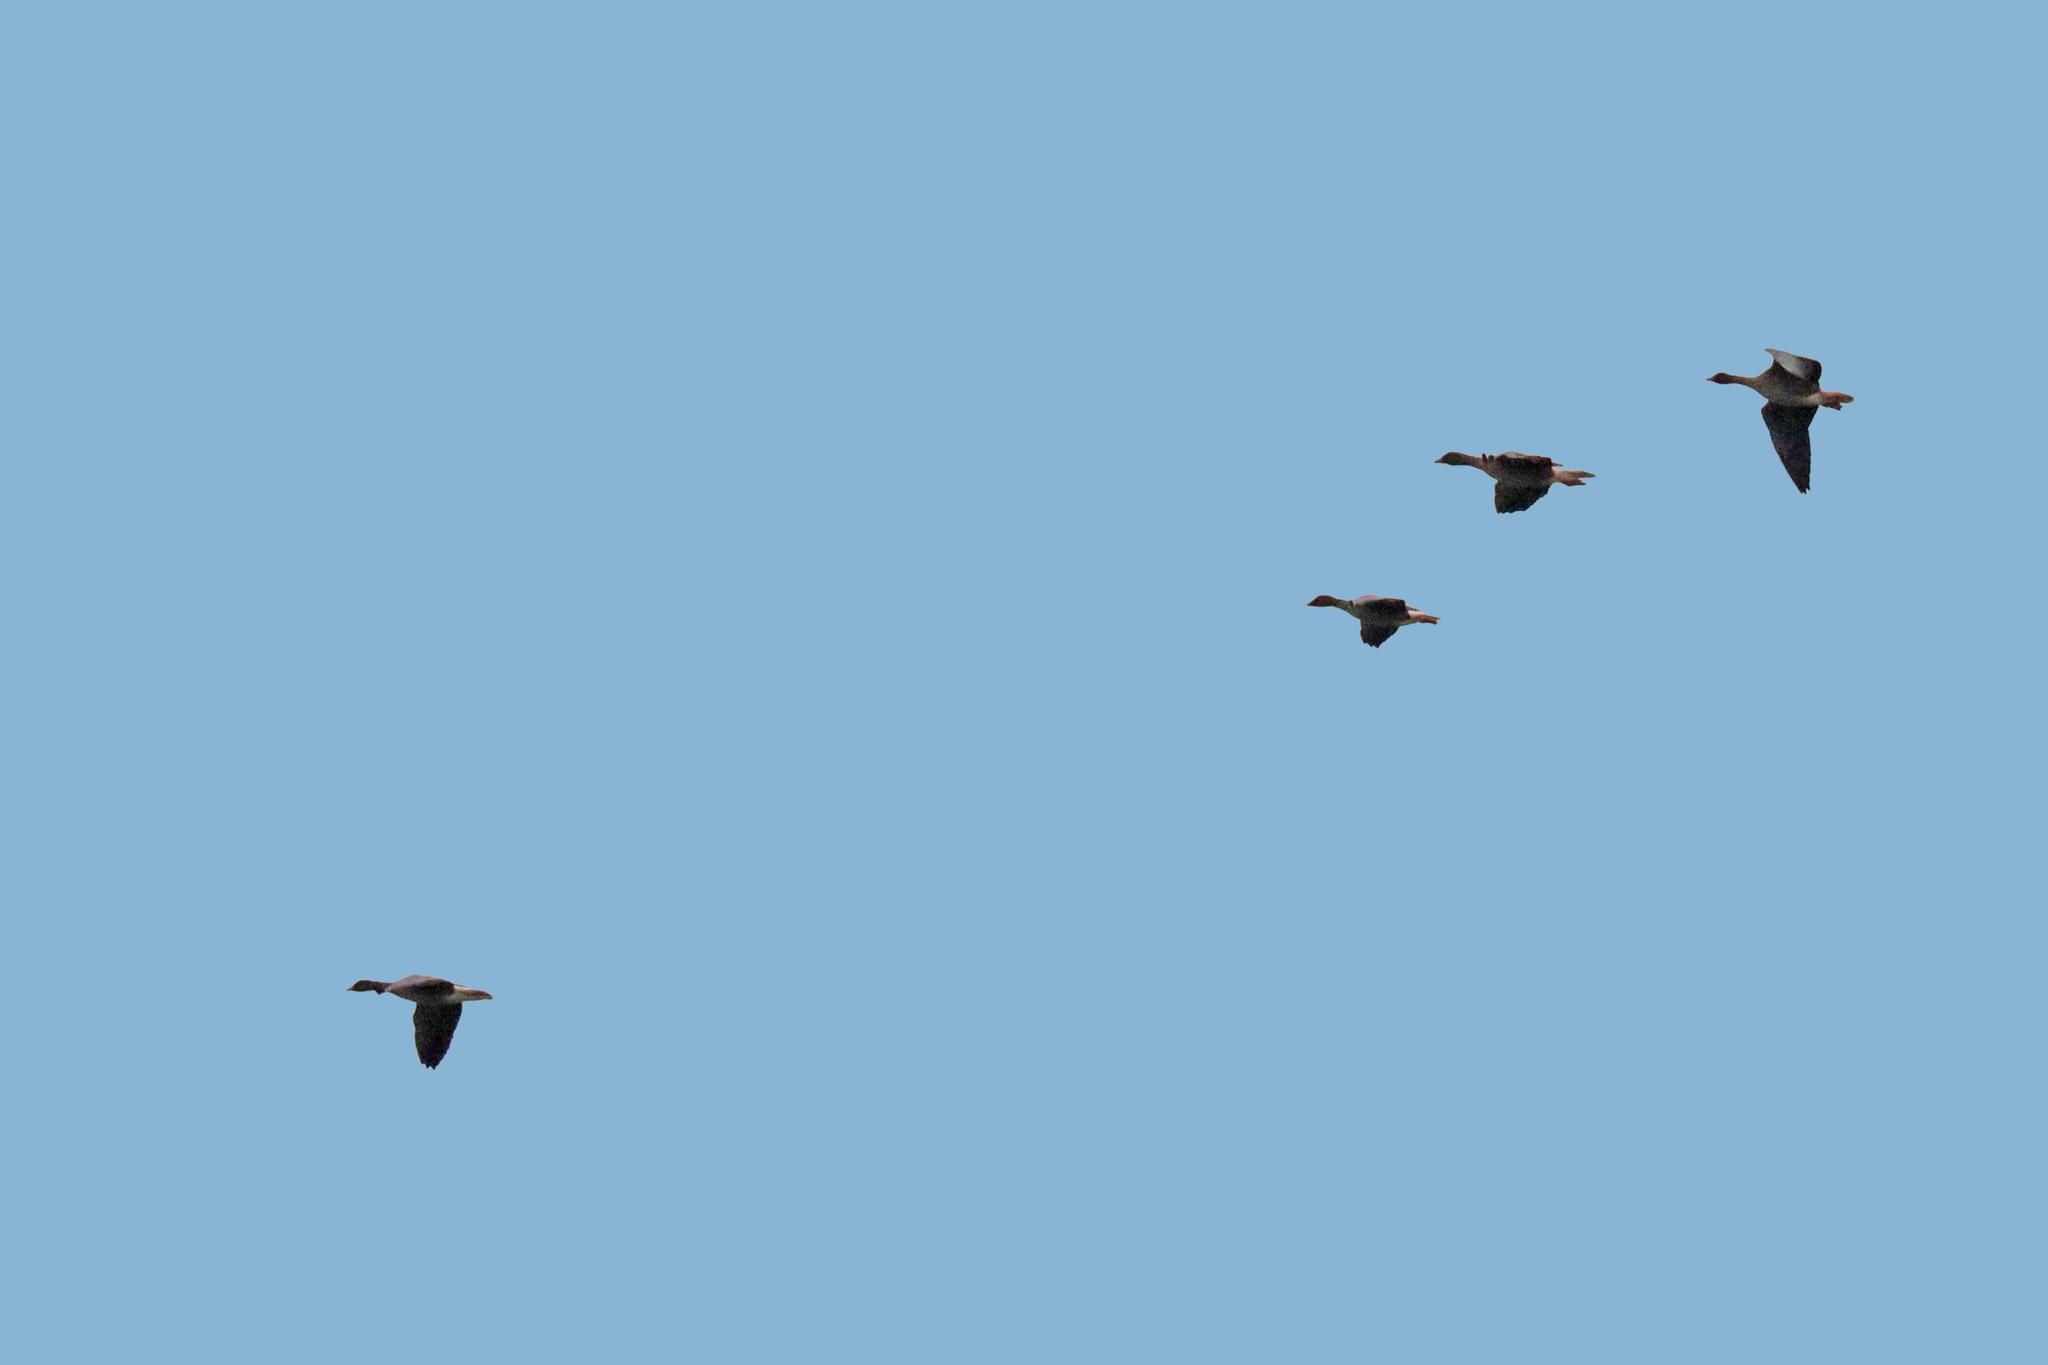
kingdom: Animalia
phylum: Chordata
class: Aves
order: Anseriformes
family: Anatidae
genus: Anser
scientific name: Anser brachyrhynchus
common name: Pink-footed goose
